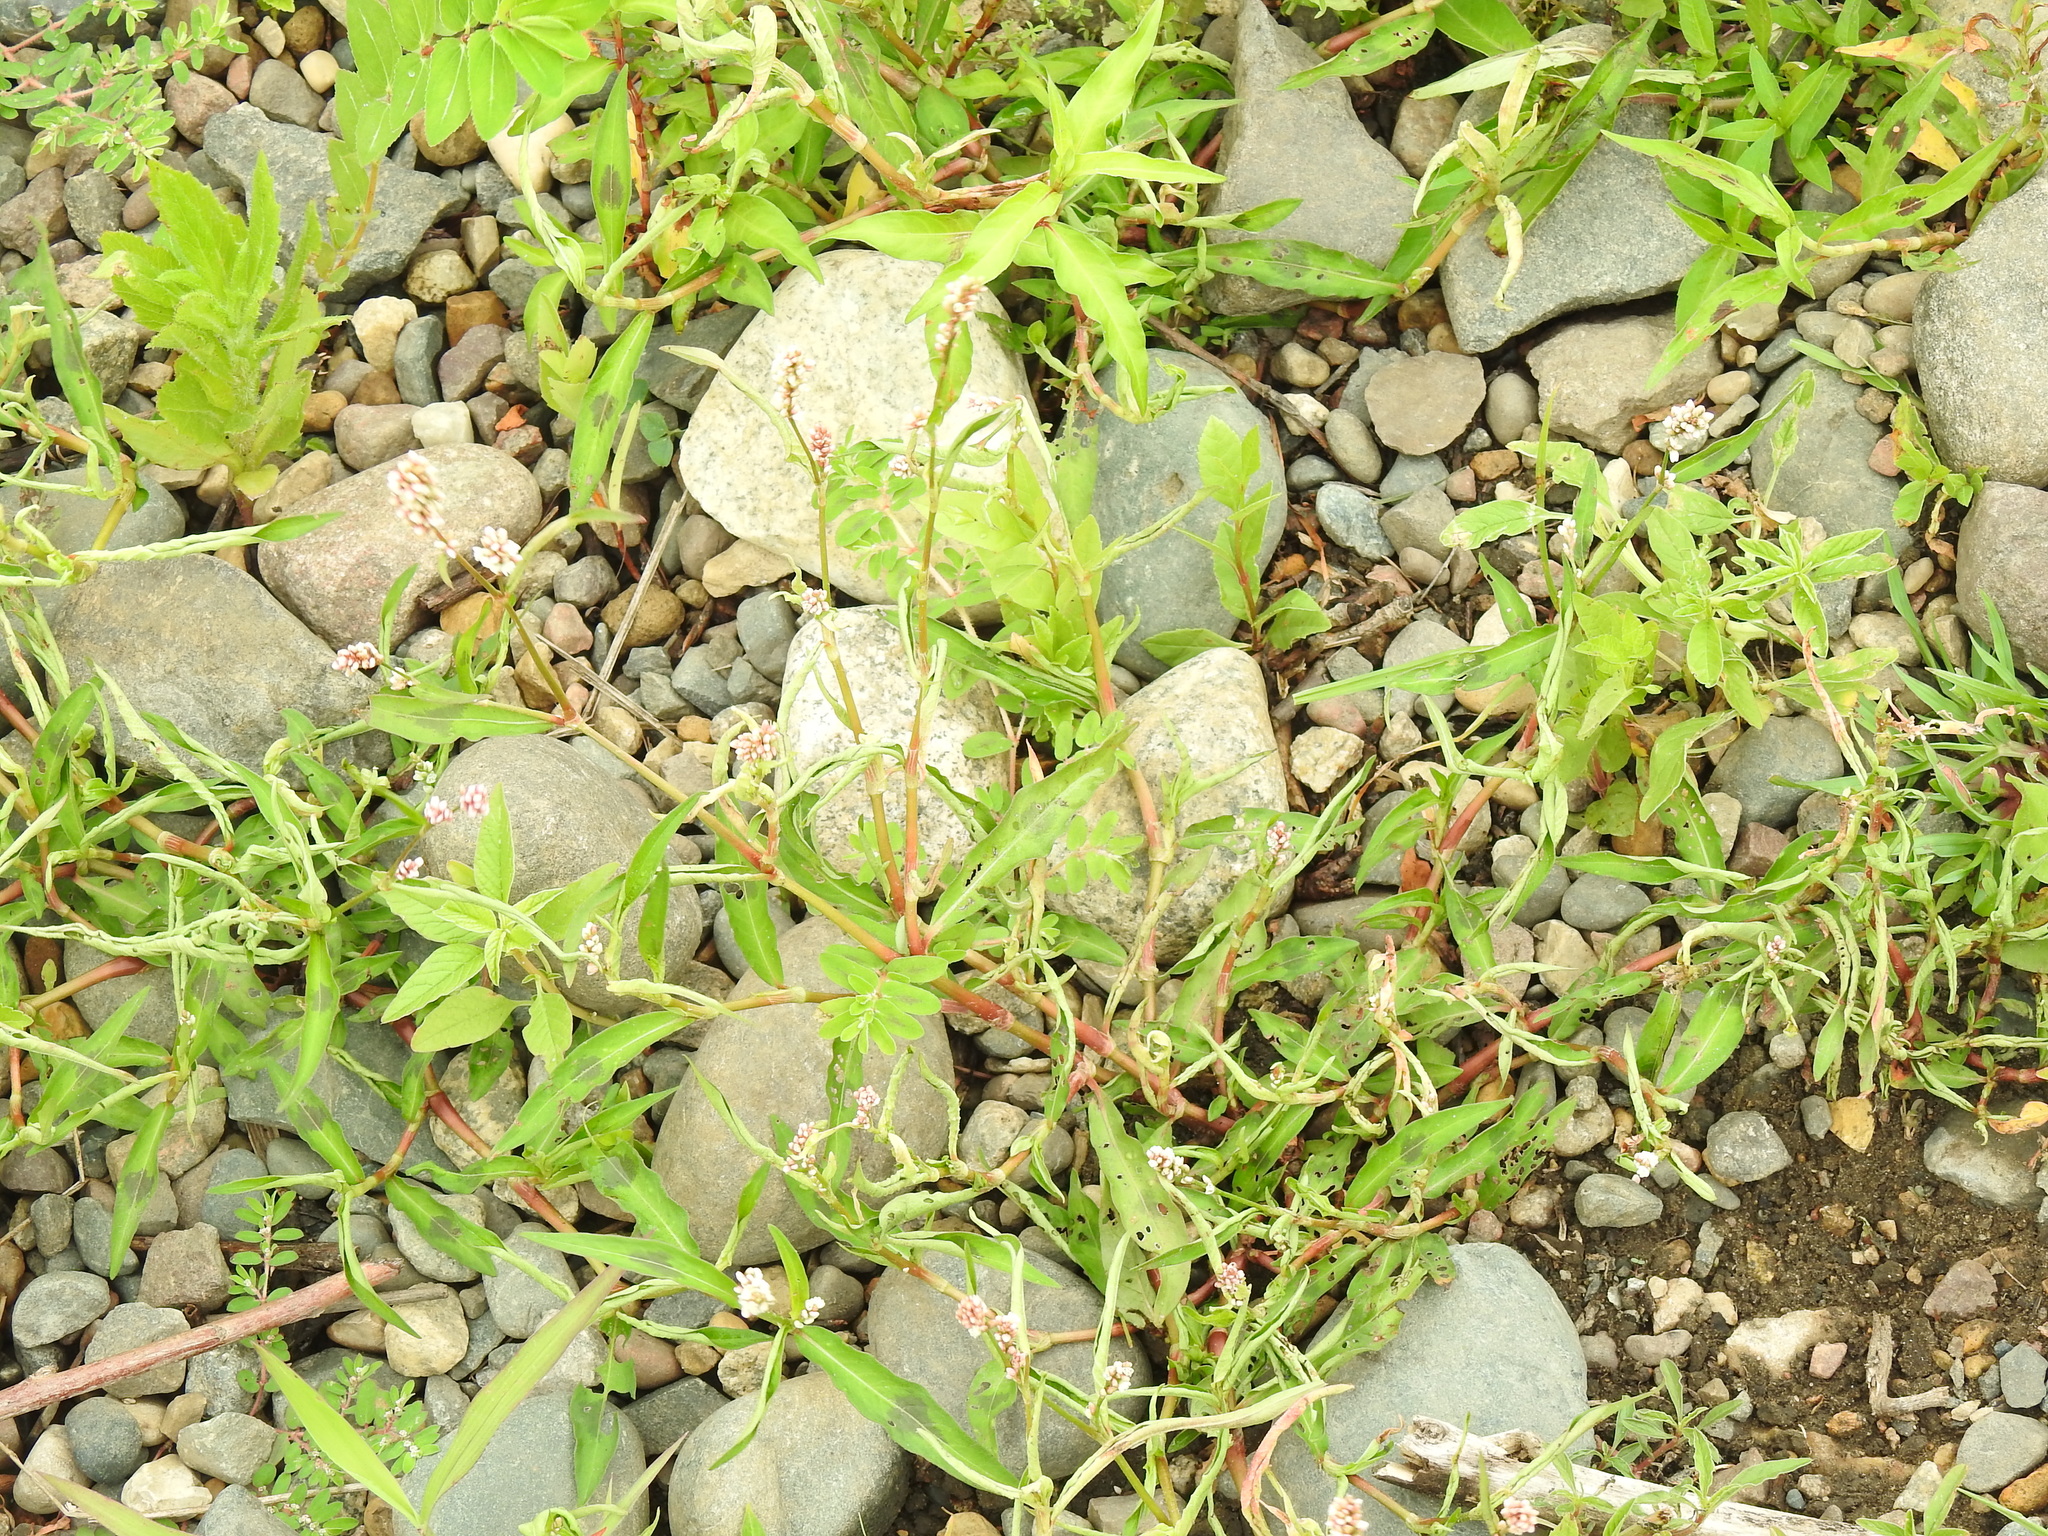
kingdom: Plantae
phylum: Tracheophyta
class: Magnoliopsida
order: Caryophyllales
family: Polygonaceae
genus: Persicaria
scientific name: Persicaria maculosa
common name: Redshank
